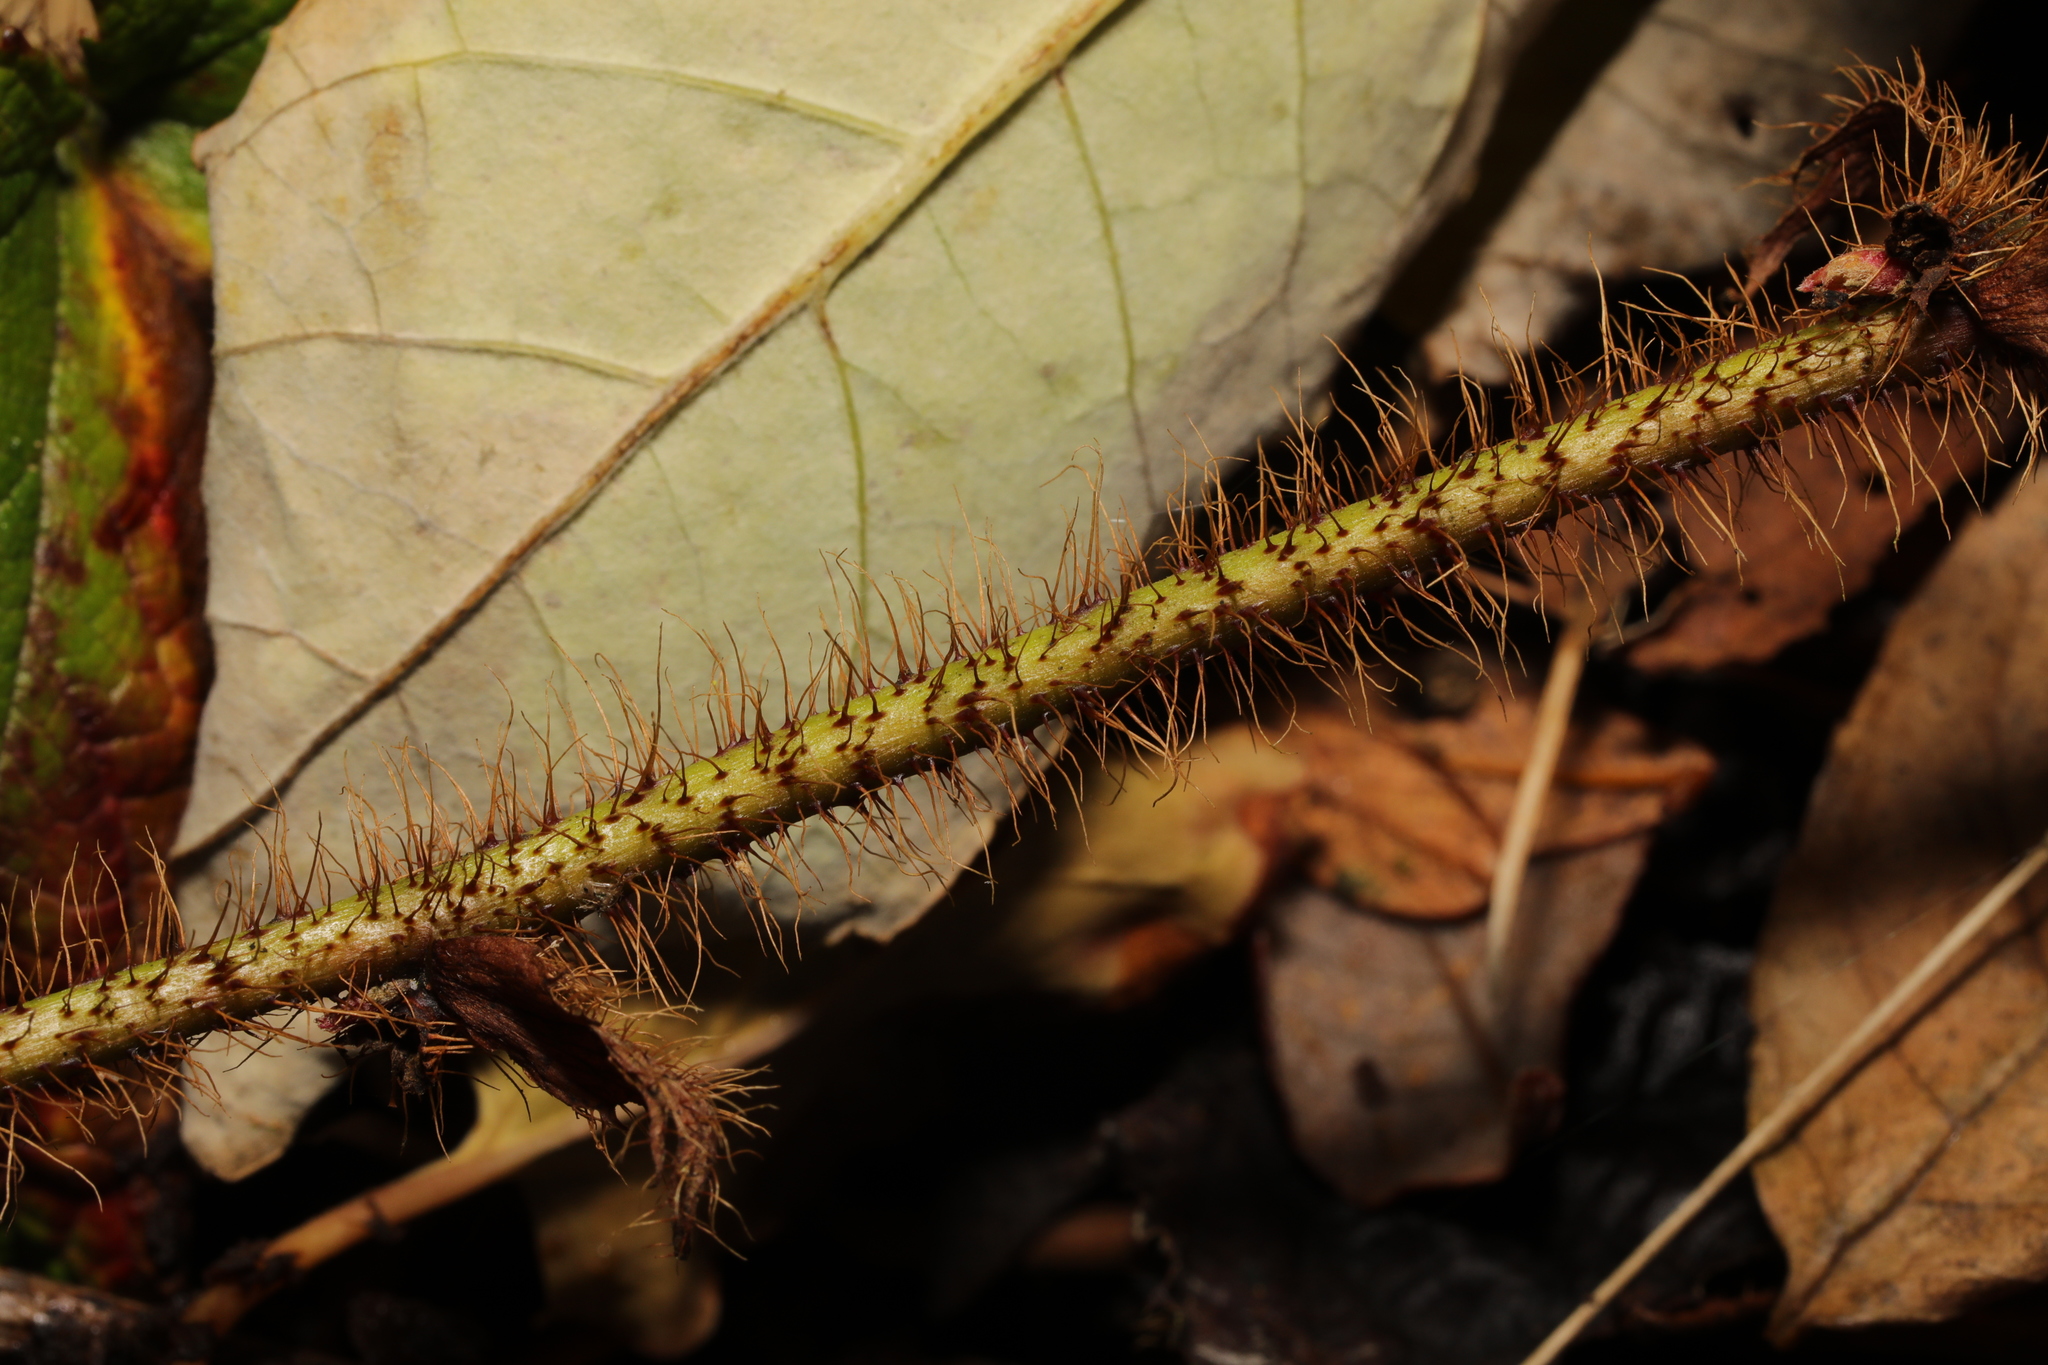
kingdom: Plantae
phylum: Tracheophyta
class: Magnoliopsida
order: Rosales
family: Rosaceae
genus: Rubus
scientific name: Rubus tricolor
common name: Chinese bramble
